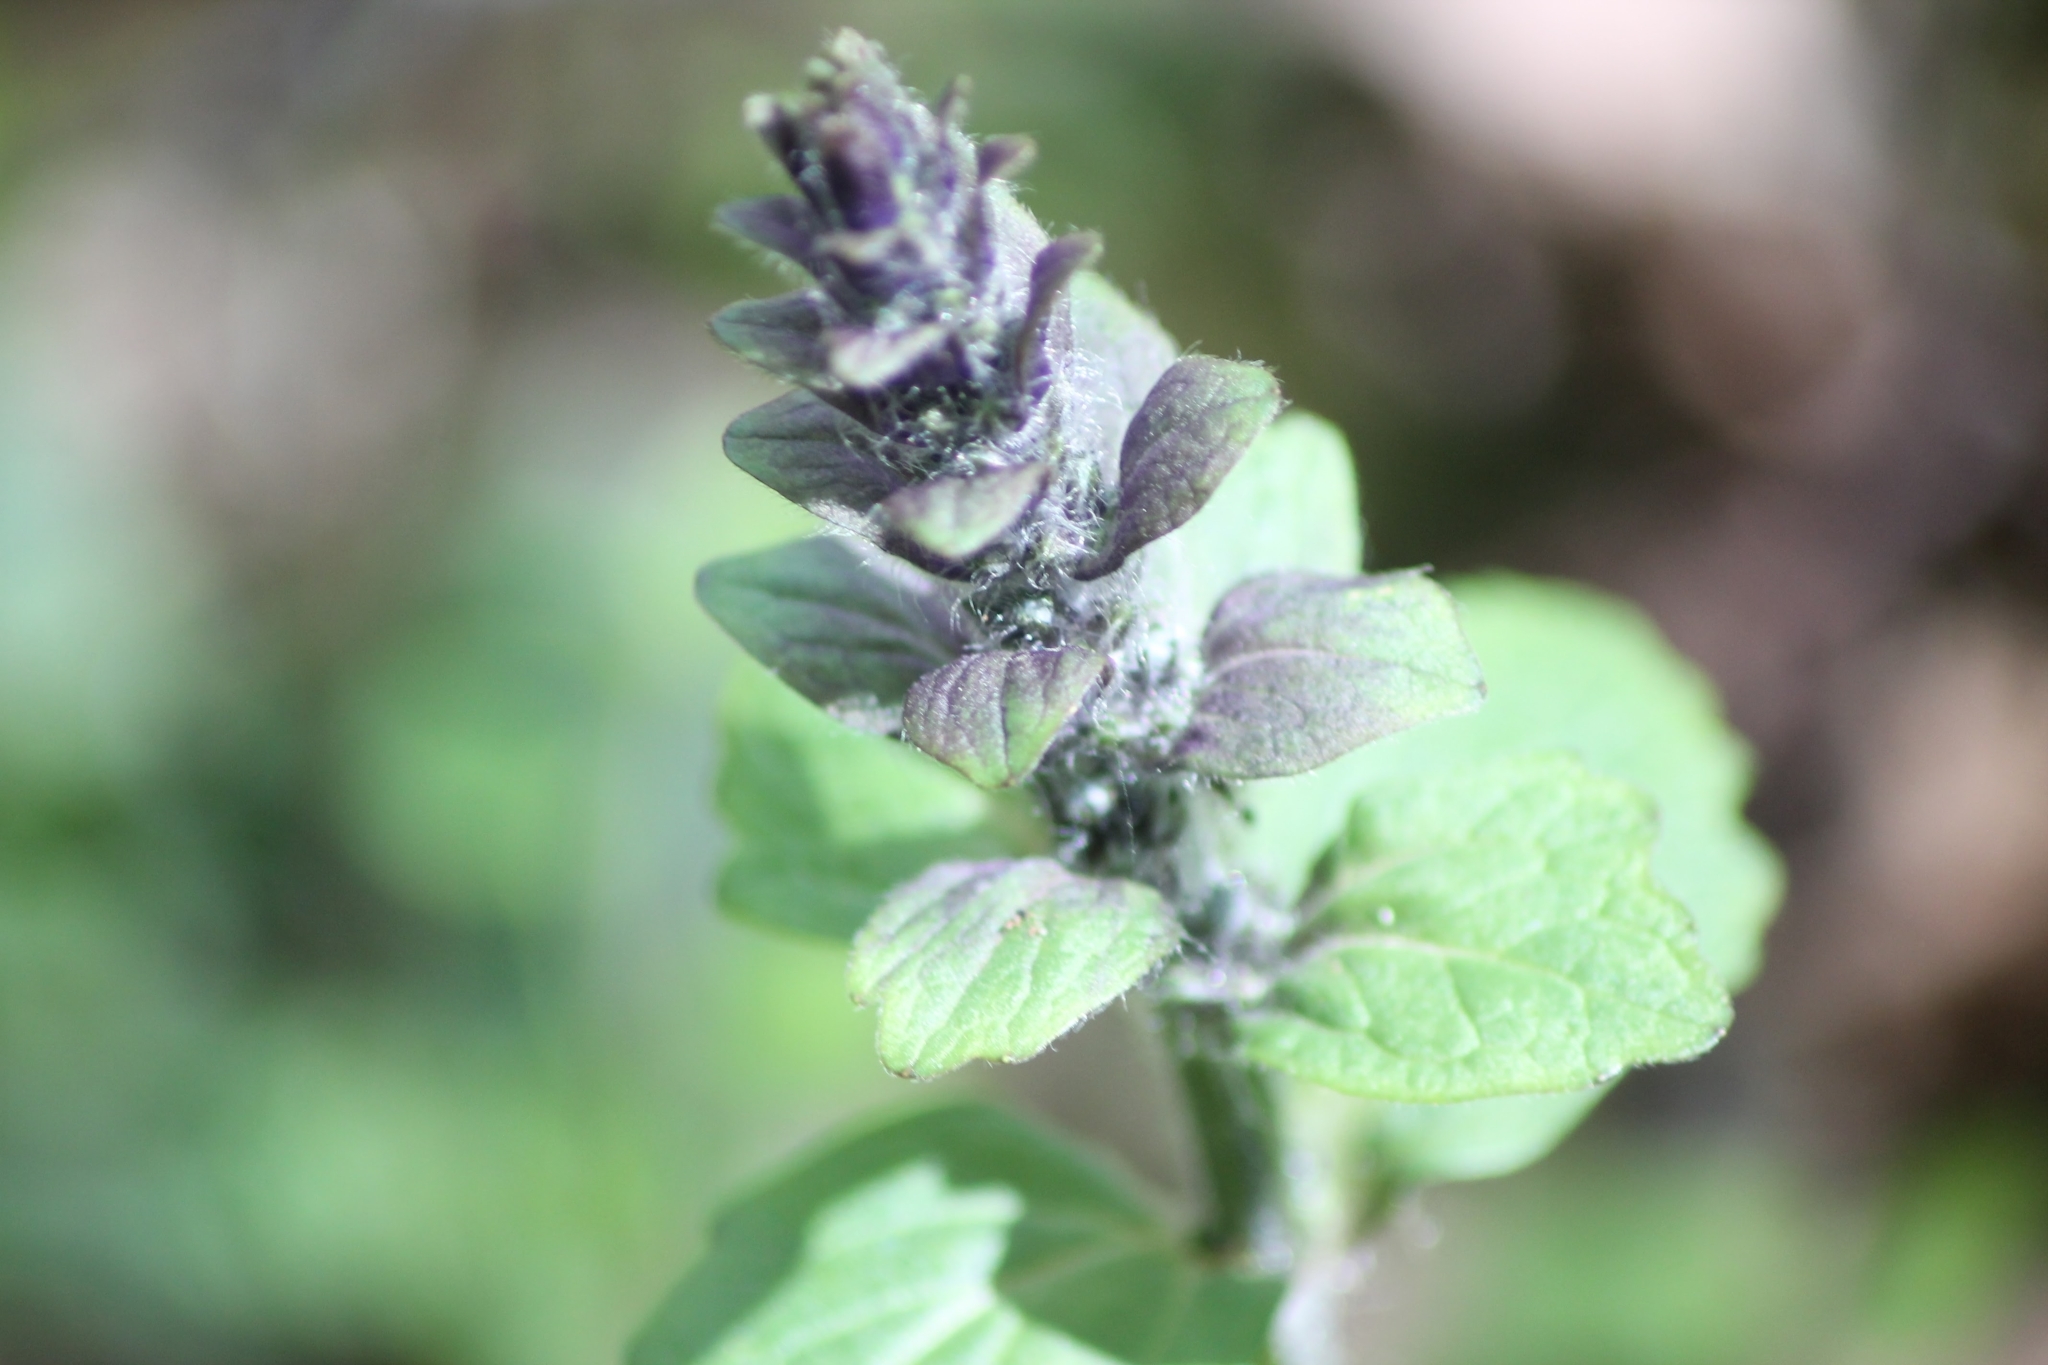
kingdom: Plantae
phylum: Tracheophyta
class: Magnoliopsida
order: Lamiales
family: Lamiaceae
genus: Ajuga
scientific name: Ajuga reptans
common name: Bugle
